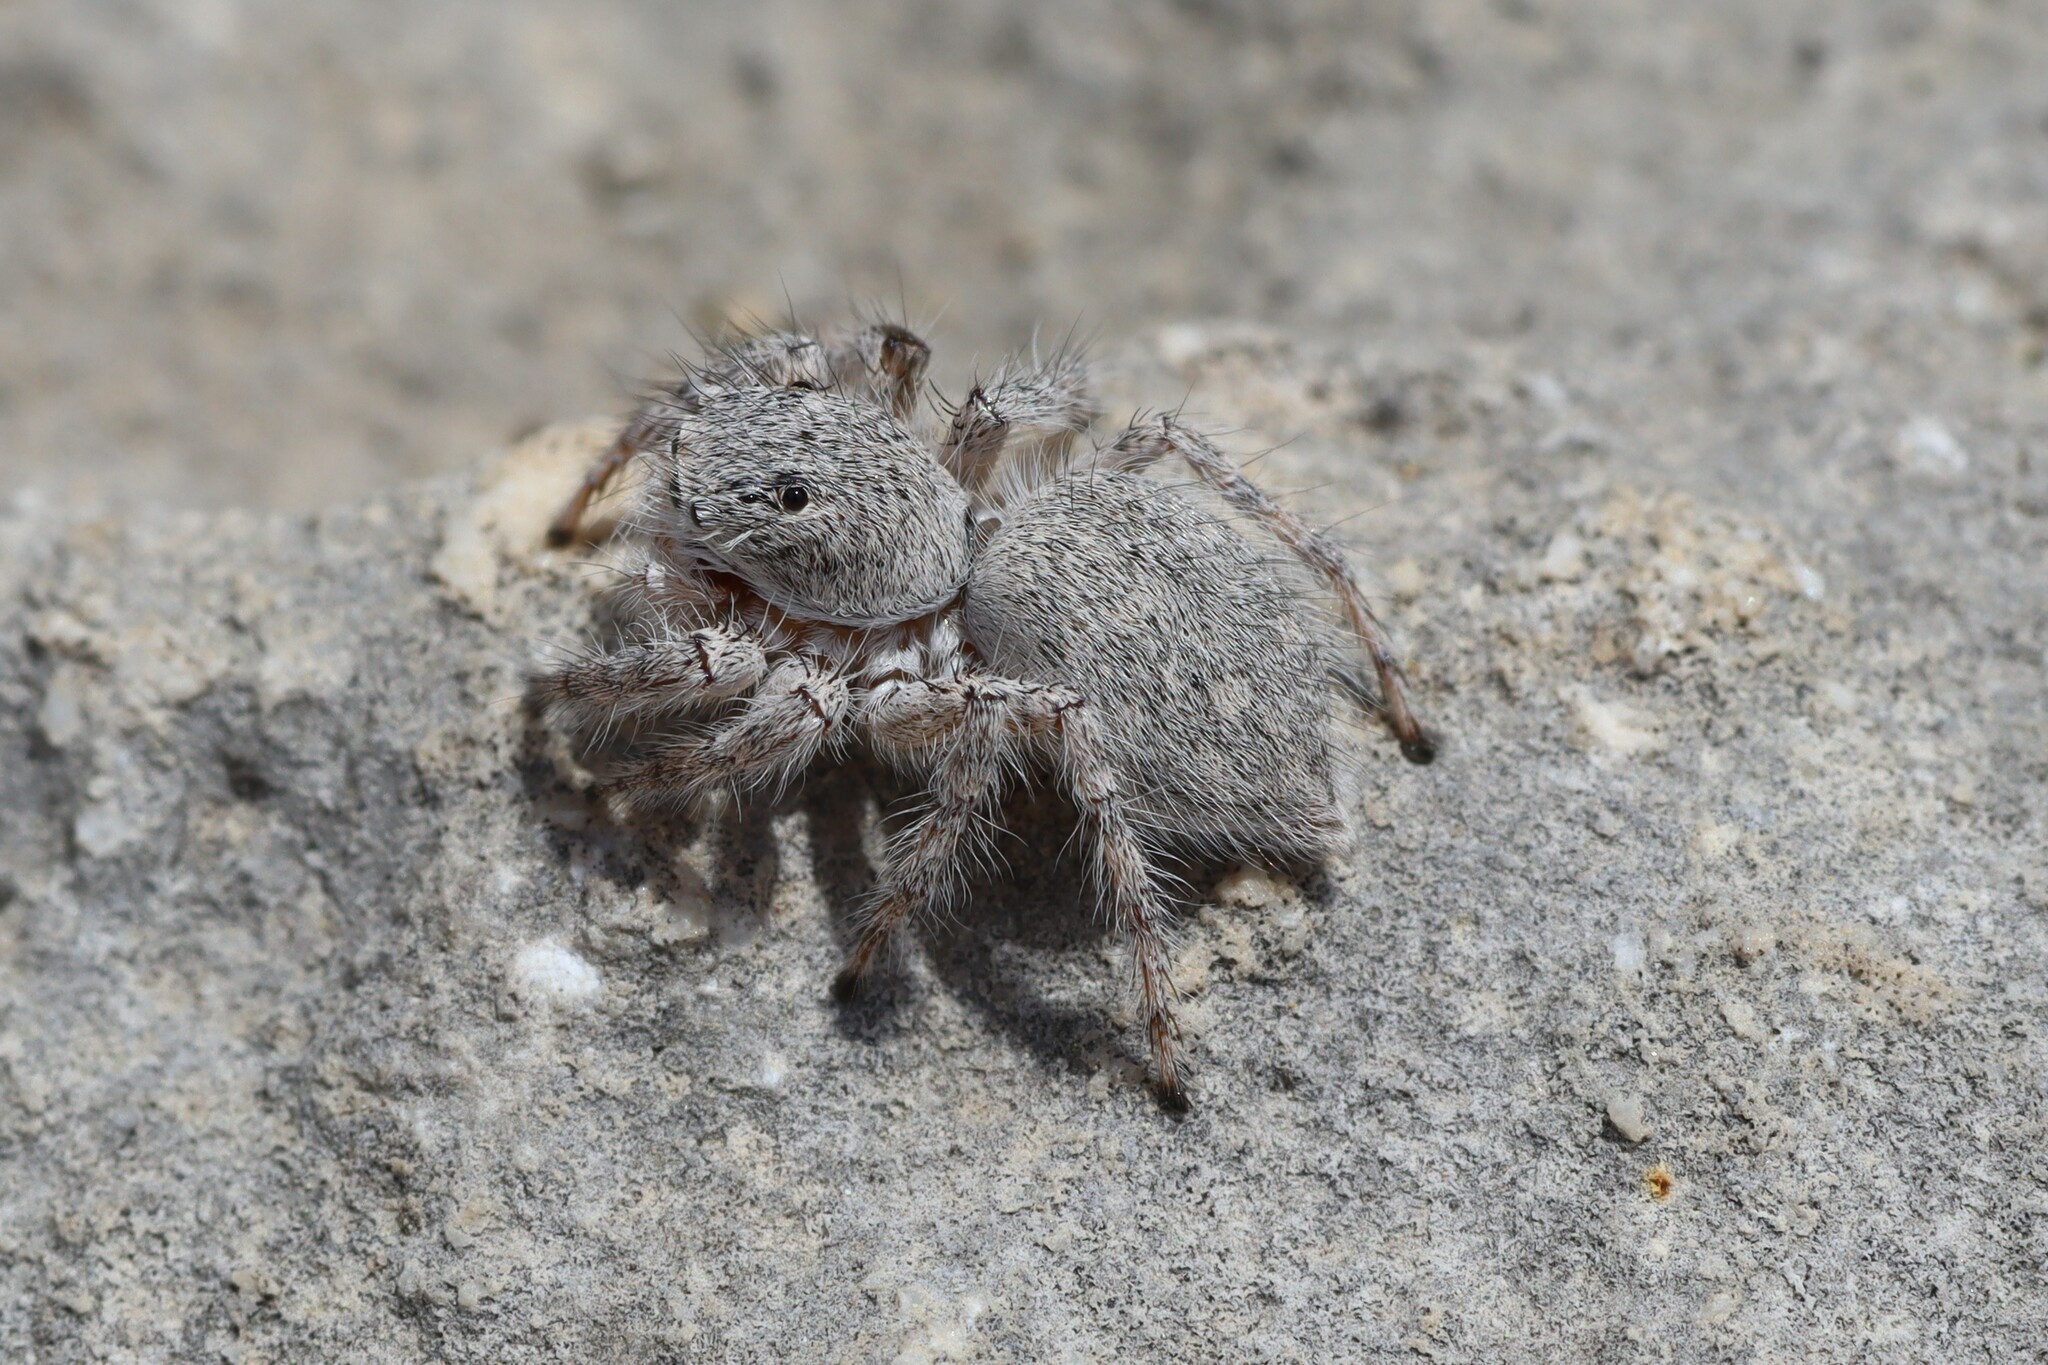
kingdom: Animalia
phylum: Arthropoda
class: Arachnida
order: Araneae
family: Salticidae
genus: Plexippoides
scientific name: Plexippoides gestroi
